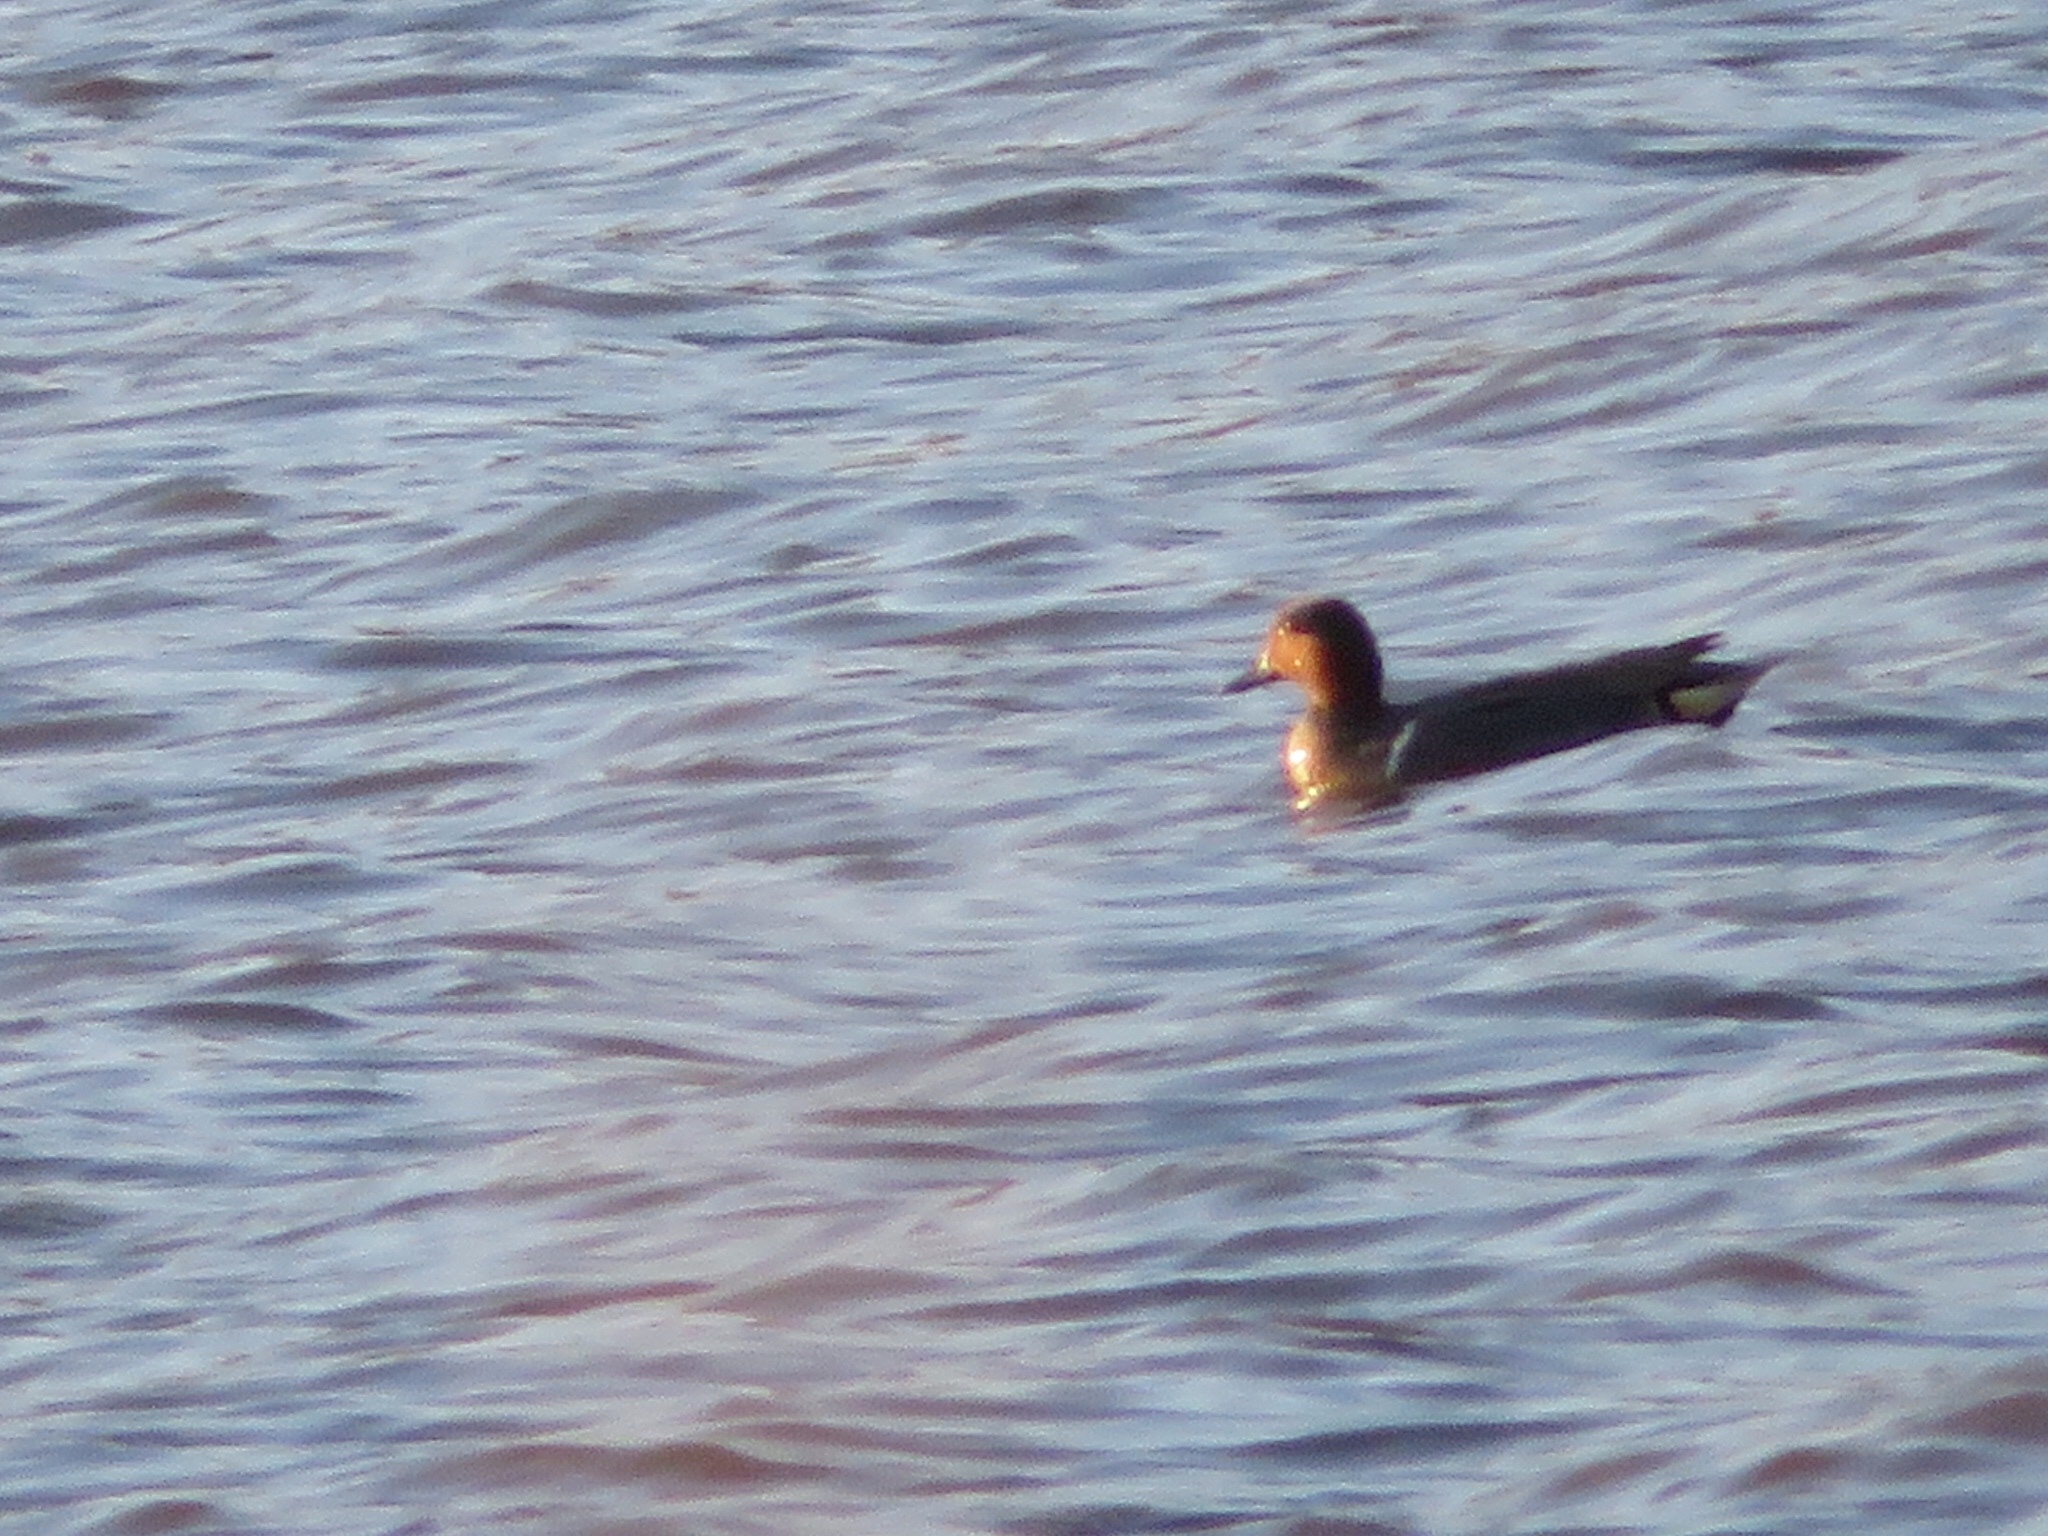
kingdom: Animalia
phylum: Chordata
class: Aves
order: Anseriformes
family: Anatidae
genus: Anas
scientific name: Anas crecca
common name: Eurasian teal
